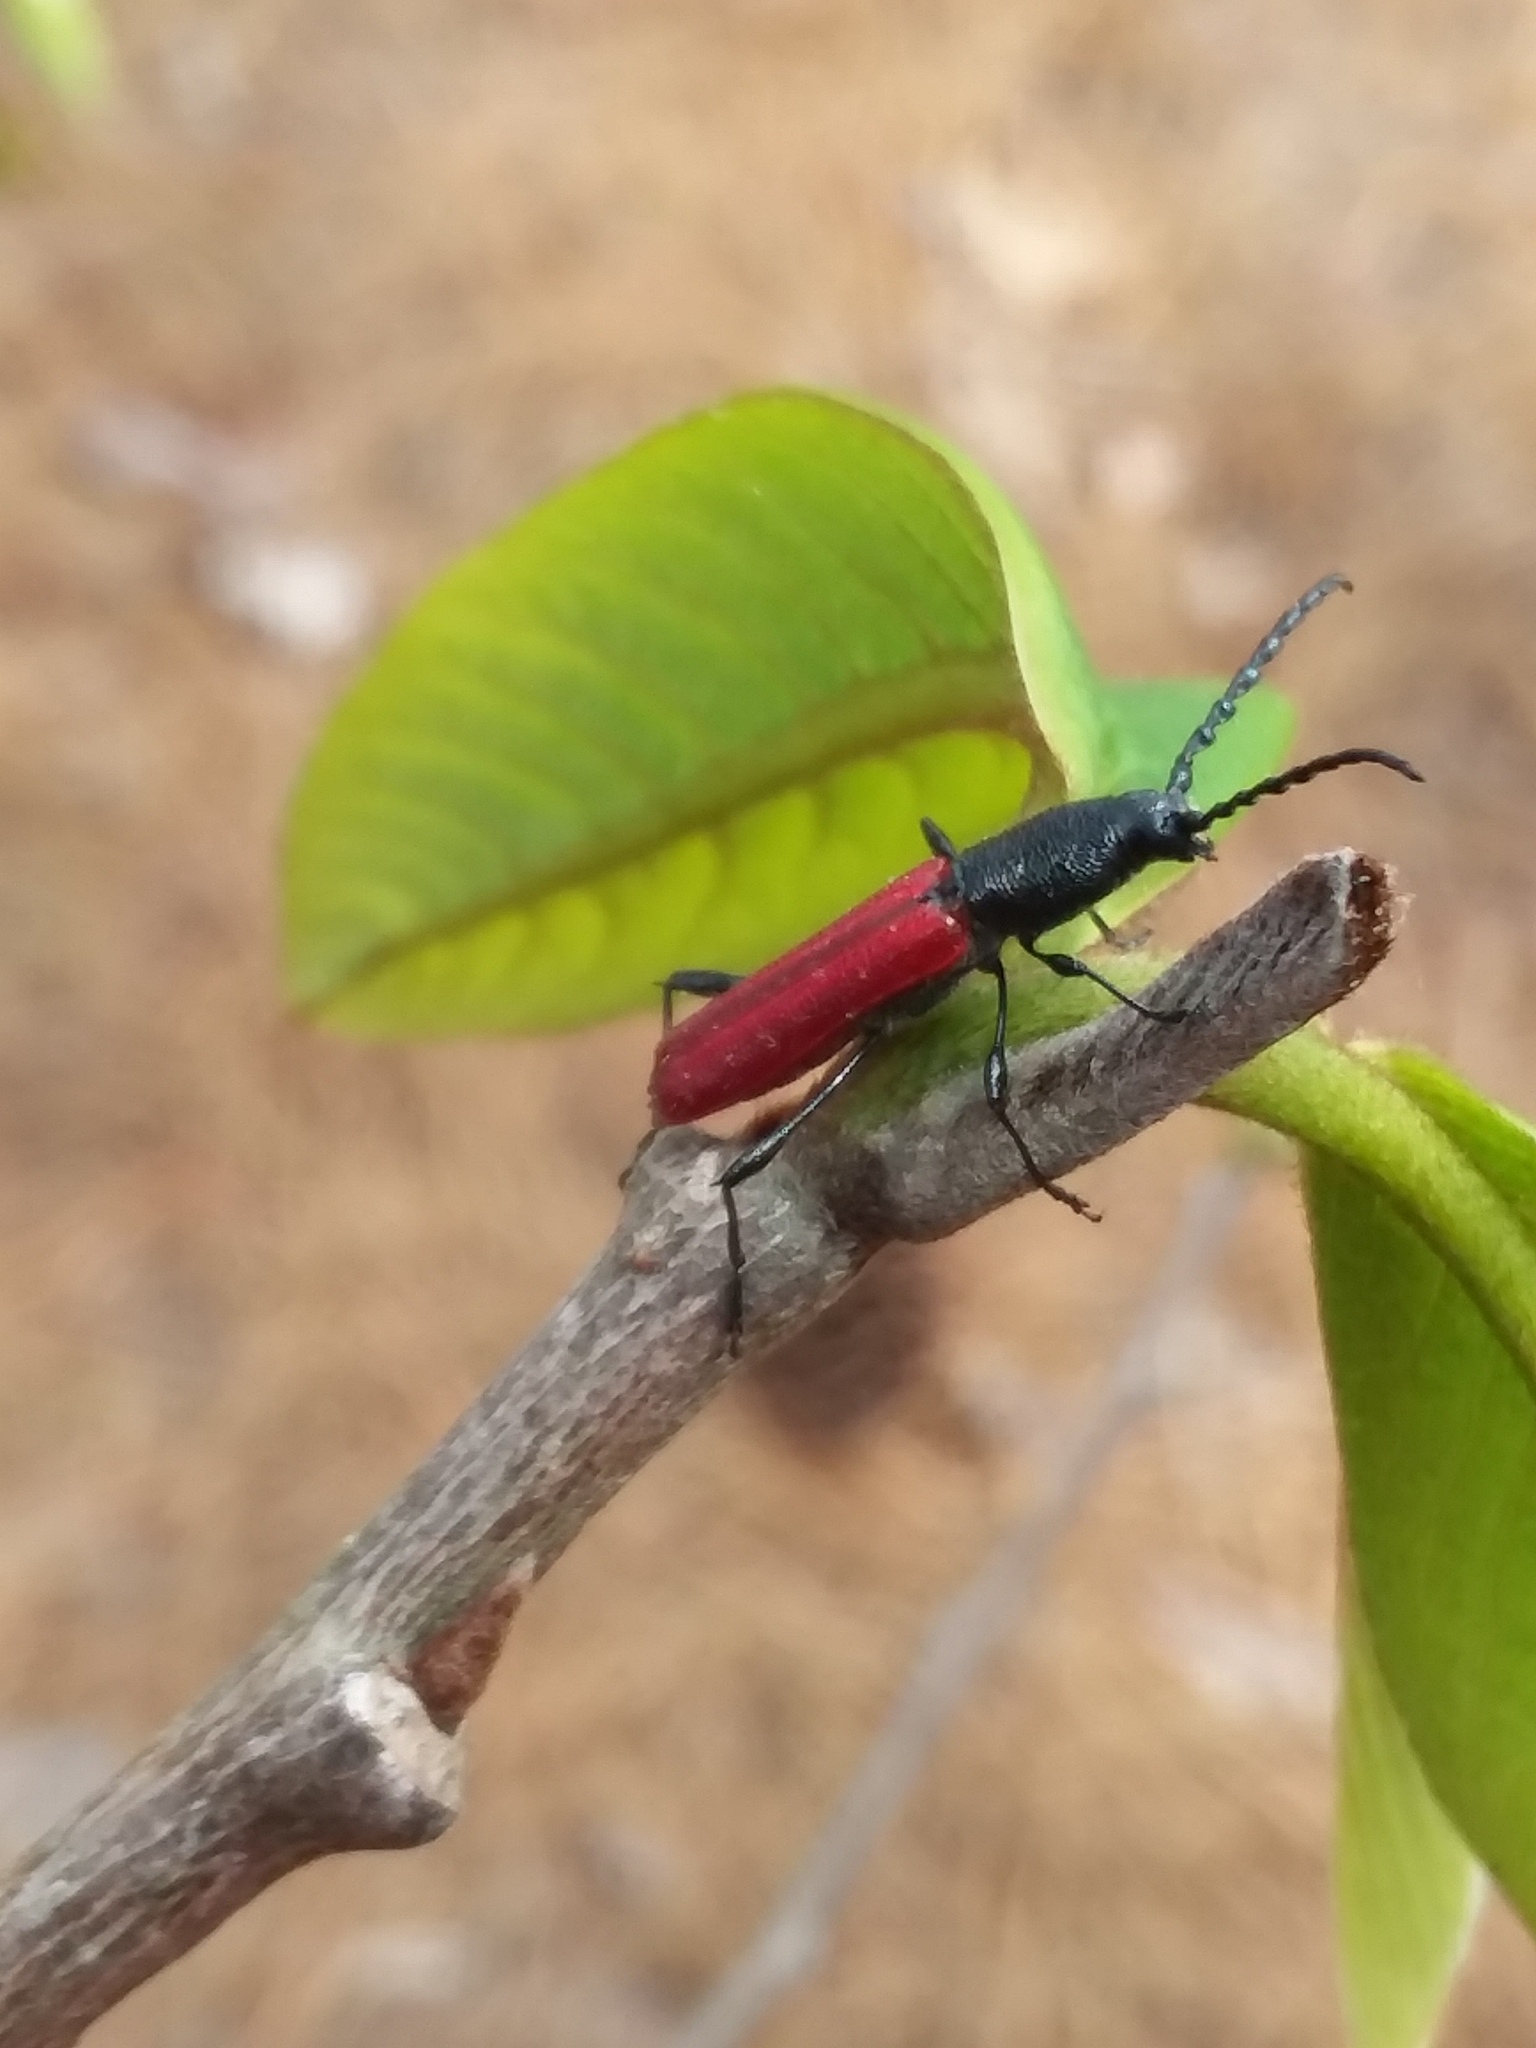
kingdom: Animalia
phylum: Arthropoda
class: Insecta
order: Coleoptera
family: Cerambycidae
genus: Ancylocera
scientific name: Ancylocera bicolor
